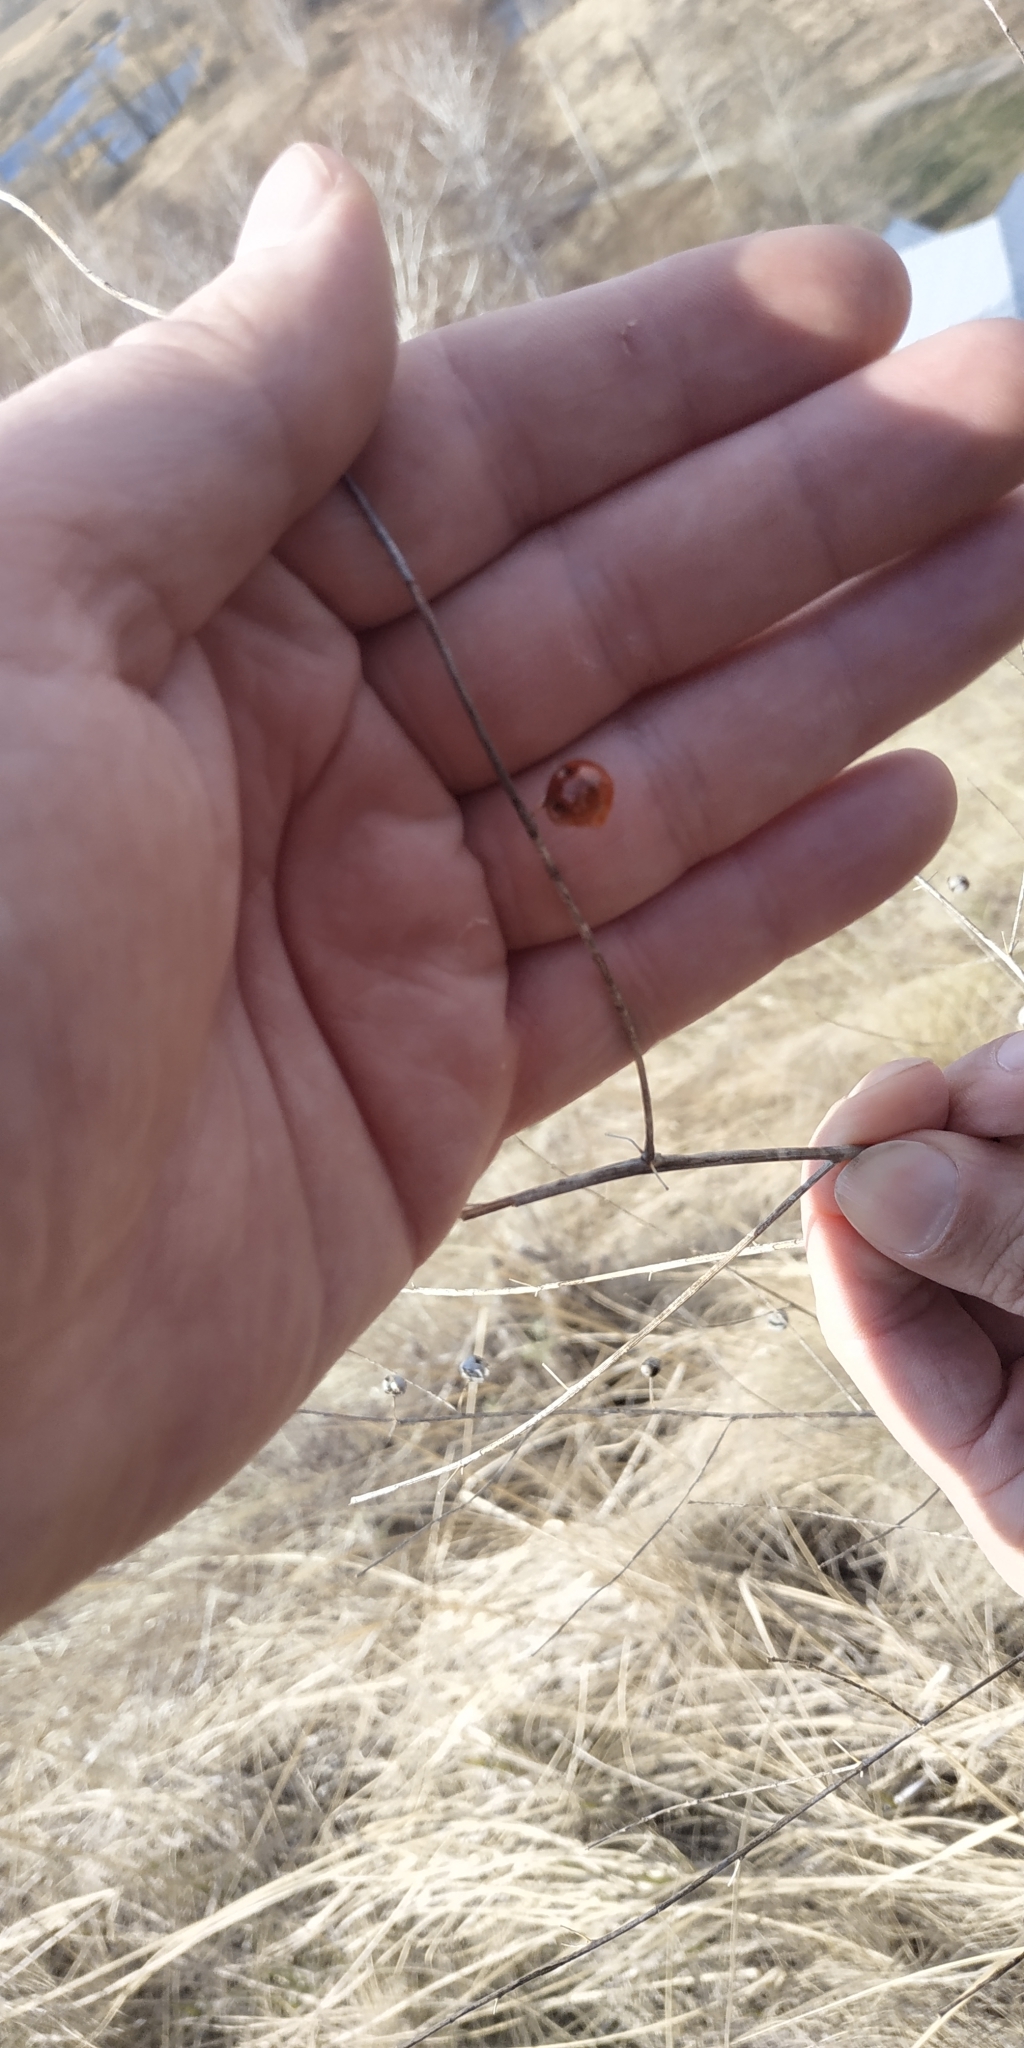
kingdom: Plantae
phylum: Tracheophyta
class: Liliopsida
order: Asparagales
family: Asparagaceae
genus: Asparagus
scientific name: Asparagus officinalis
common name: Garden asparagus
